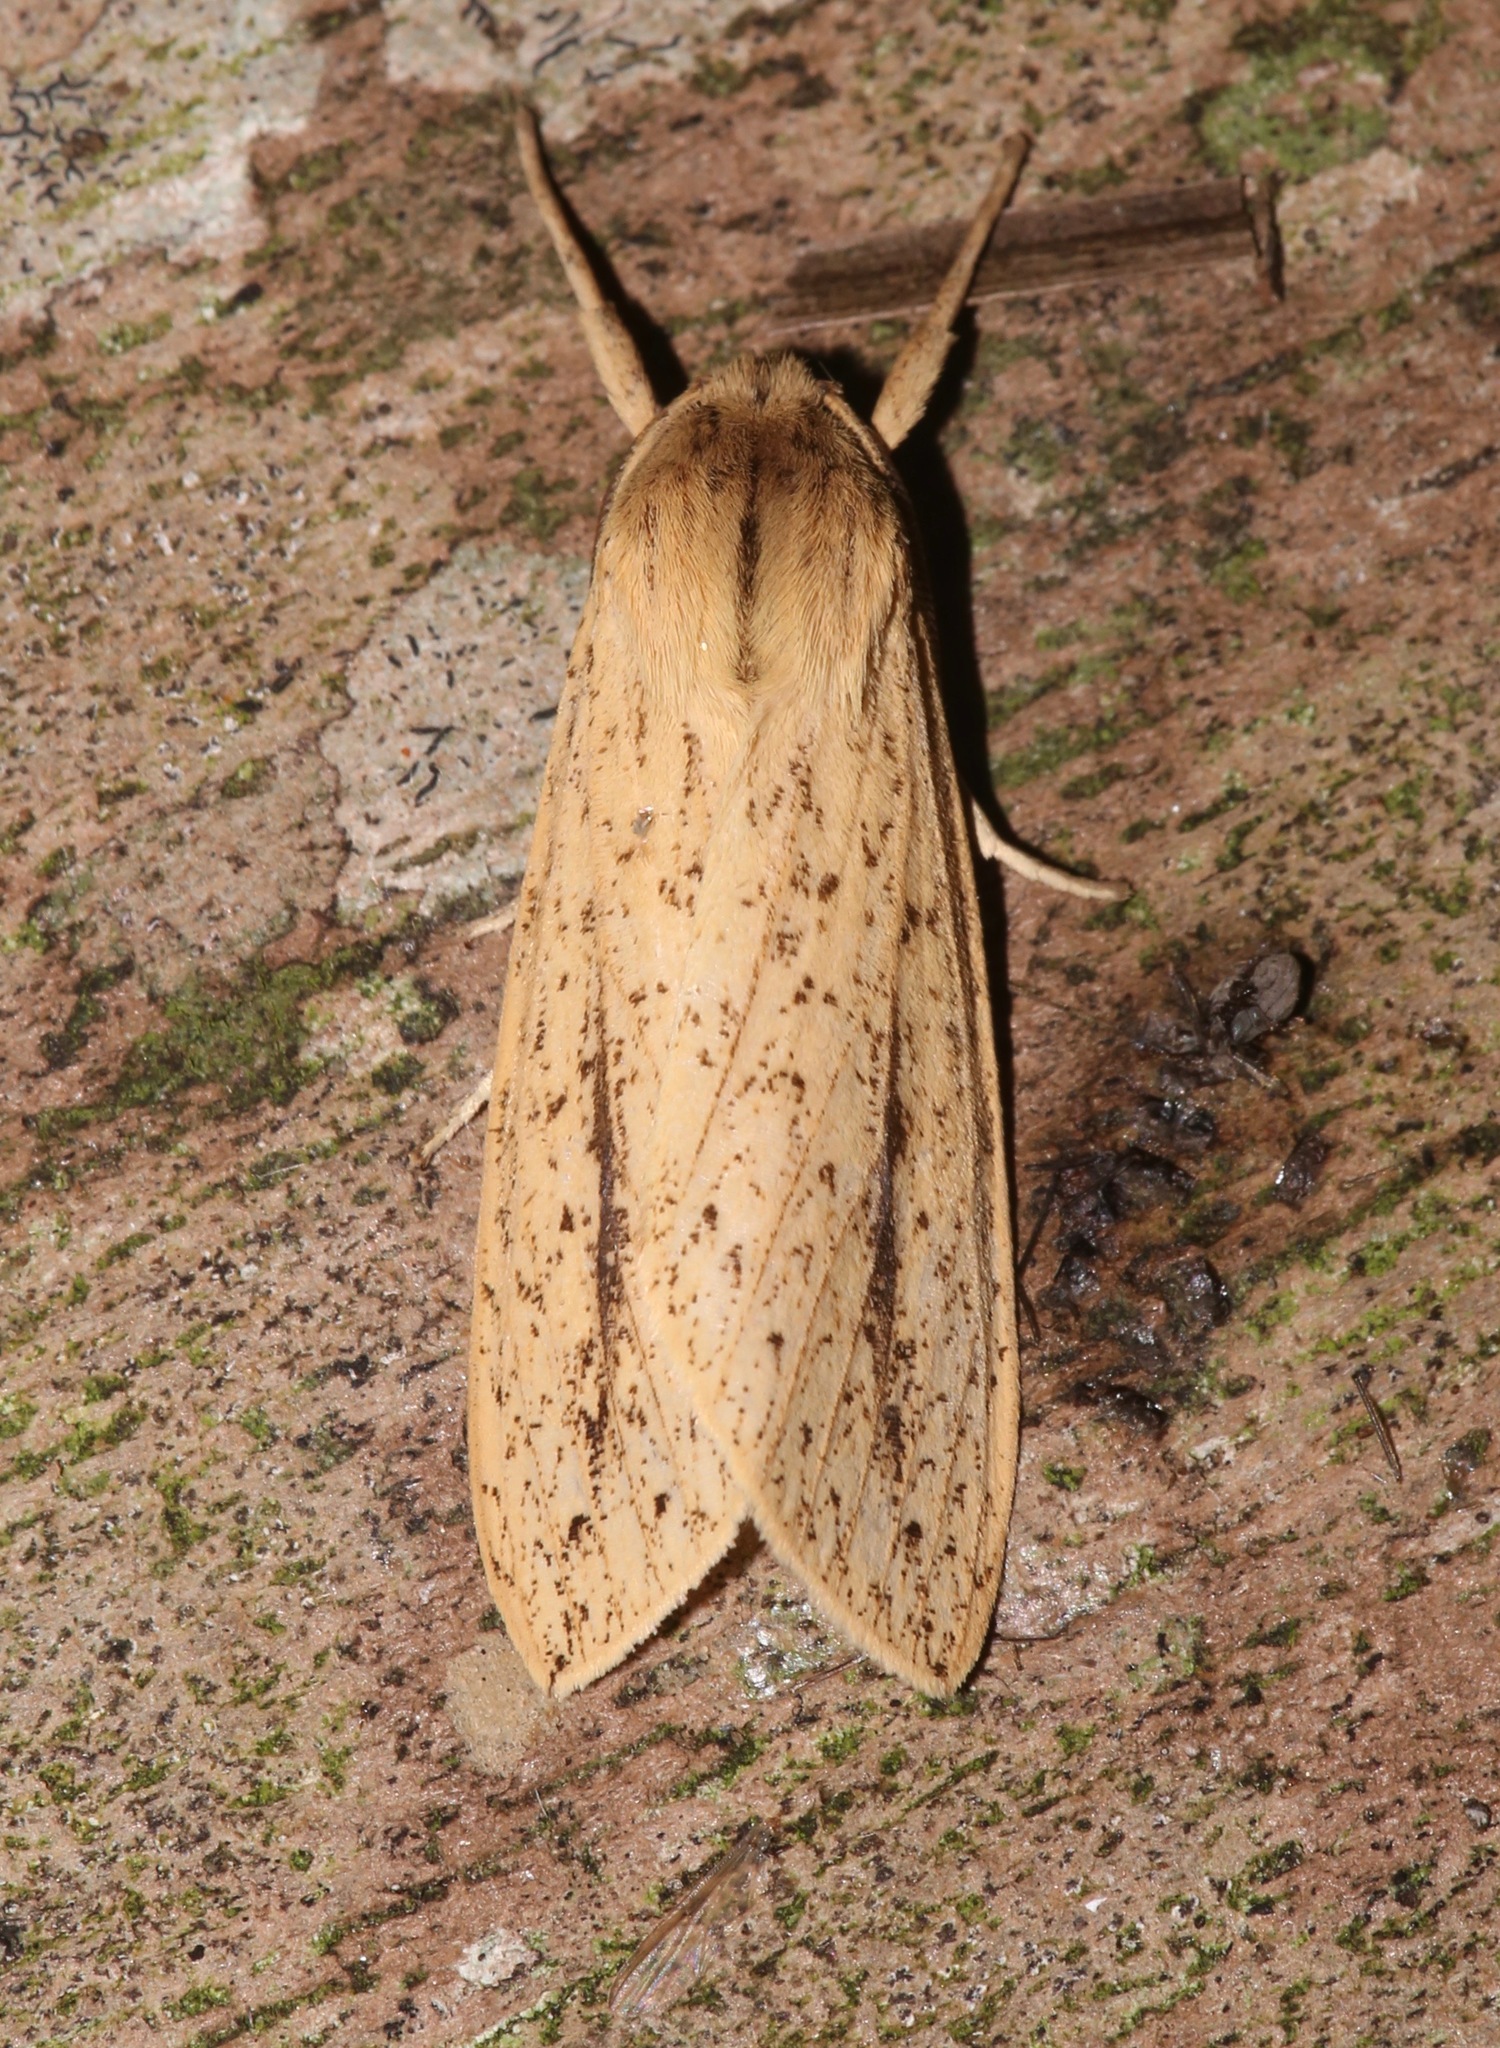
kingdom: Animalia
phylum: Arthropoda
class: Insecta
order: Lepidoptera
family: Erebidae
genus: Leucanopsis
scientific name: Leucanopsis longa
